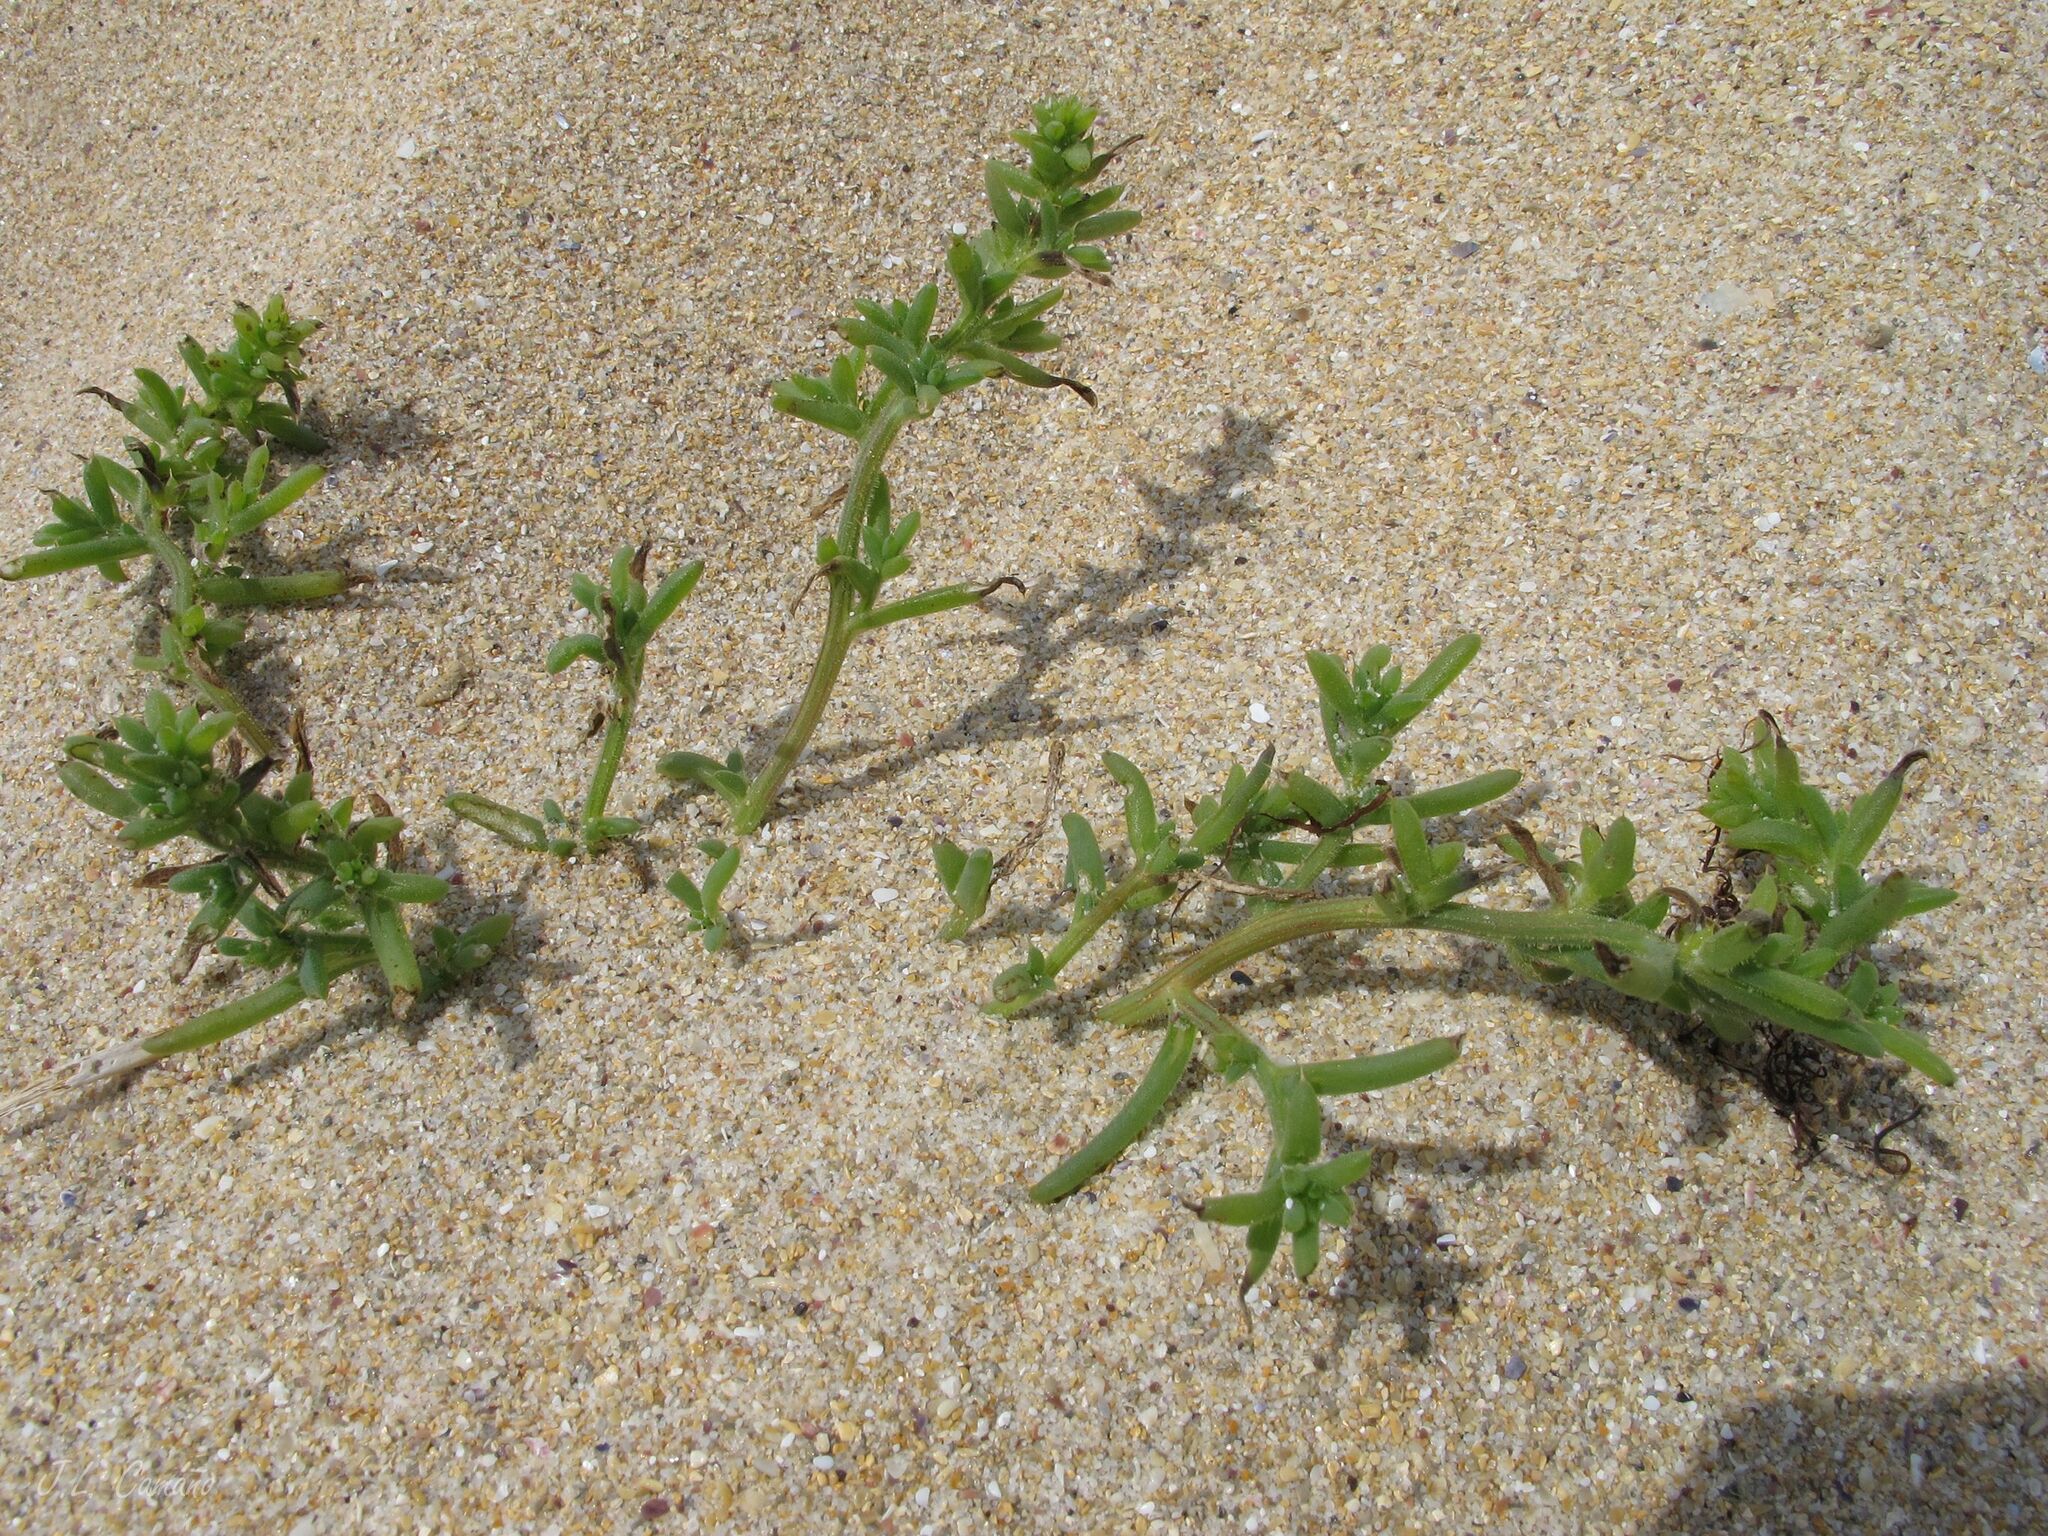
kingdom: Plantae
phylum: Tracheophyta
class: Magnoliopsida
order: Caryophyllales
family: Amaranthaceae
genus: Salsola
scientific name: Salsola kali
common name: Saltwort
